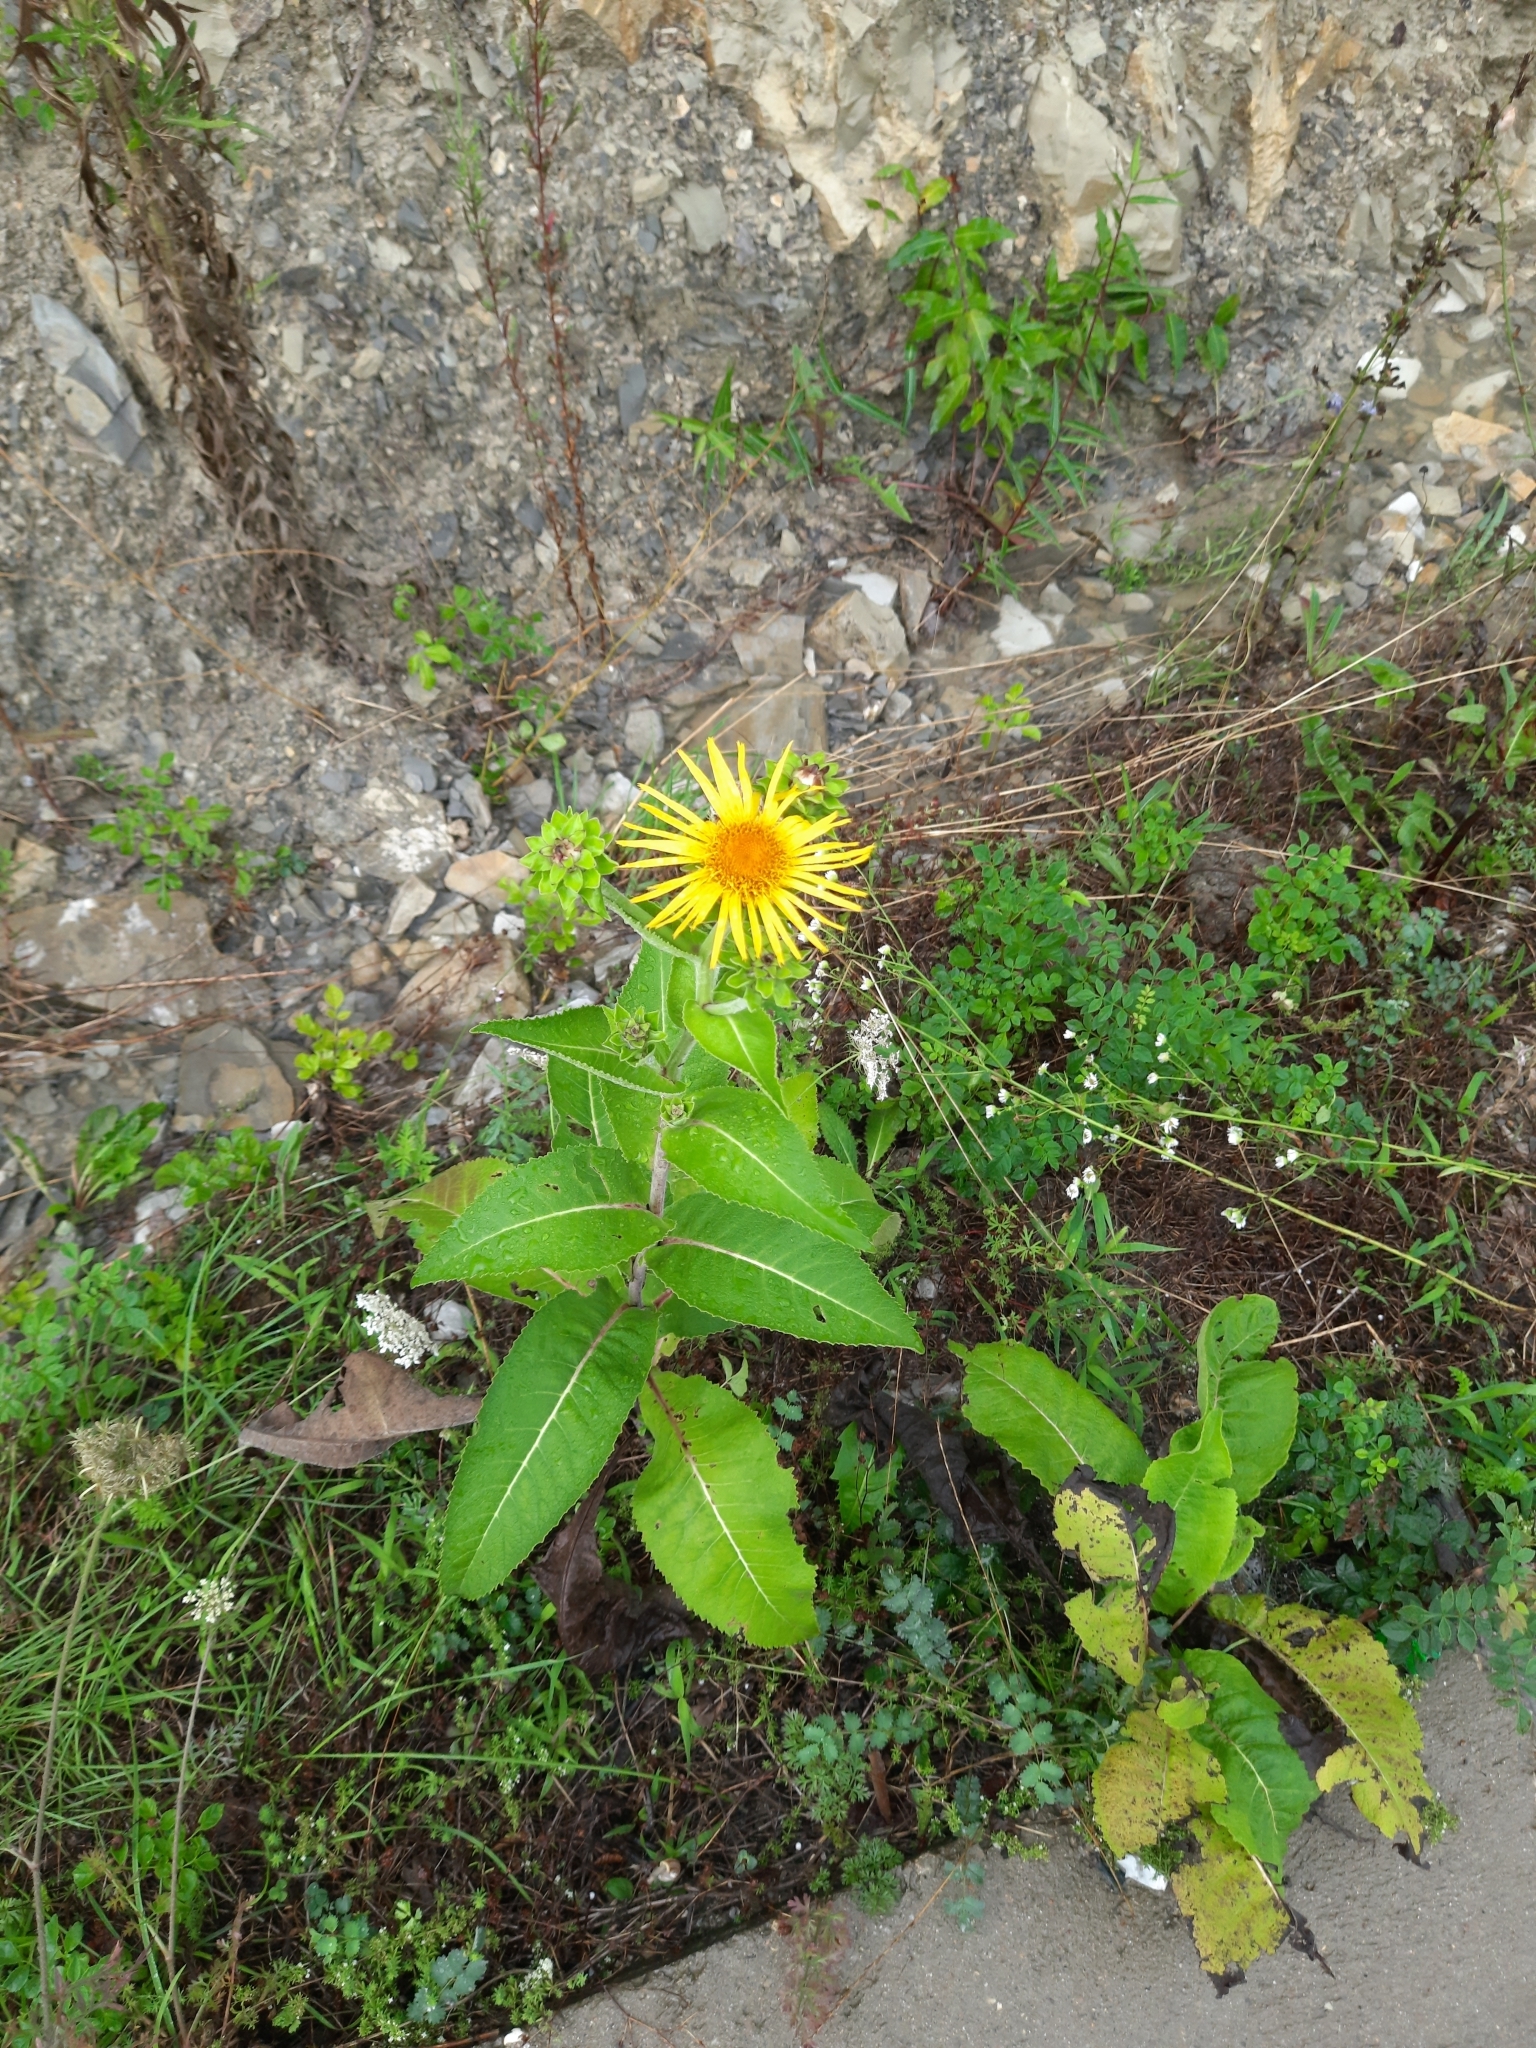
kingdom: Plantae
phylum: Tracheophyta
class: Magnoliopsida
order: Asterales
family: Asteraceae
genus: Inula
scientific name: Inula helenium
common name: Elecampane
